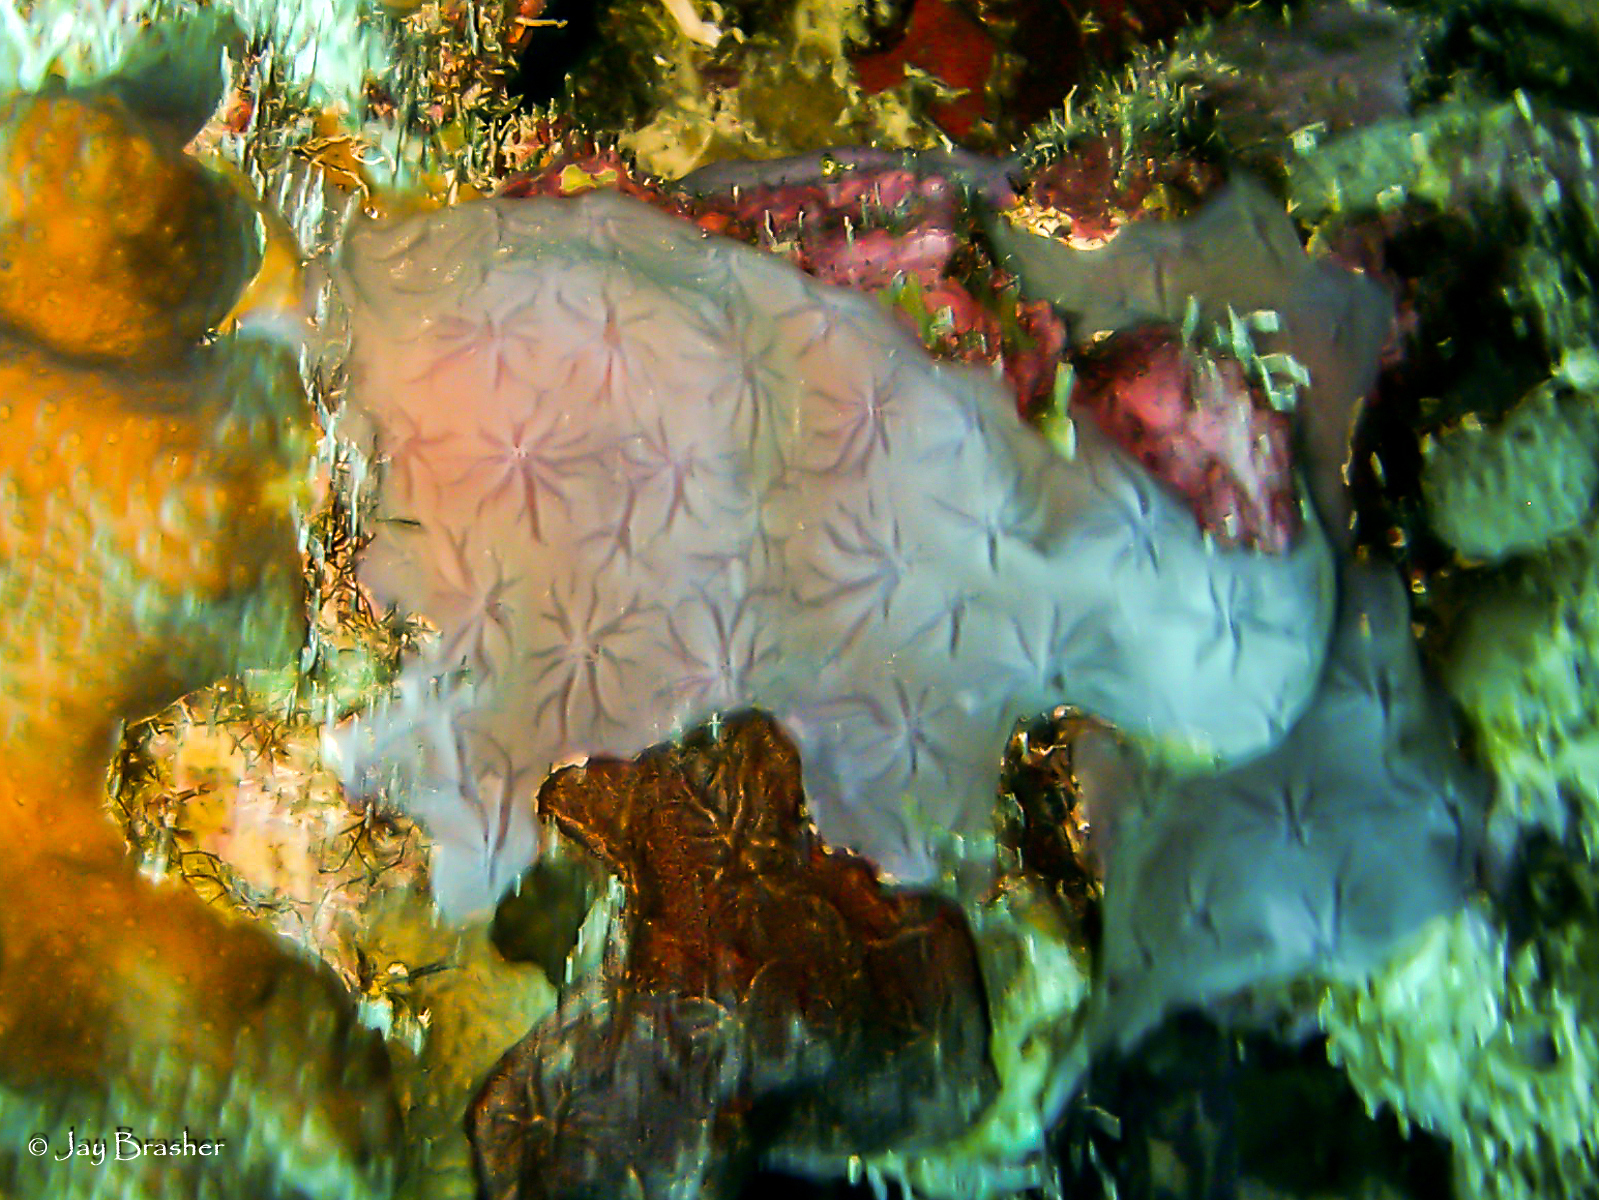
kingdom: Animalia
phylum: Porifera
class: Demospongiae
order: Chondrillida
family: Halisarcidae
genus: Halisarca
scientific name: Halisarca caerulea
